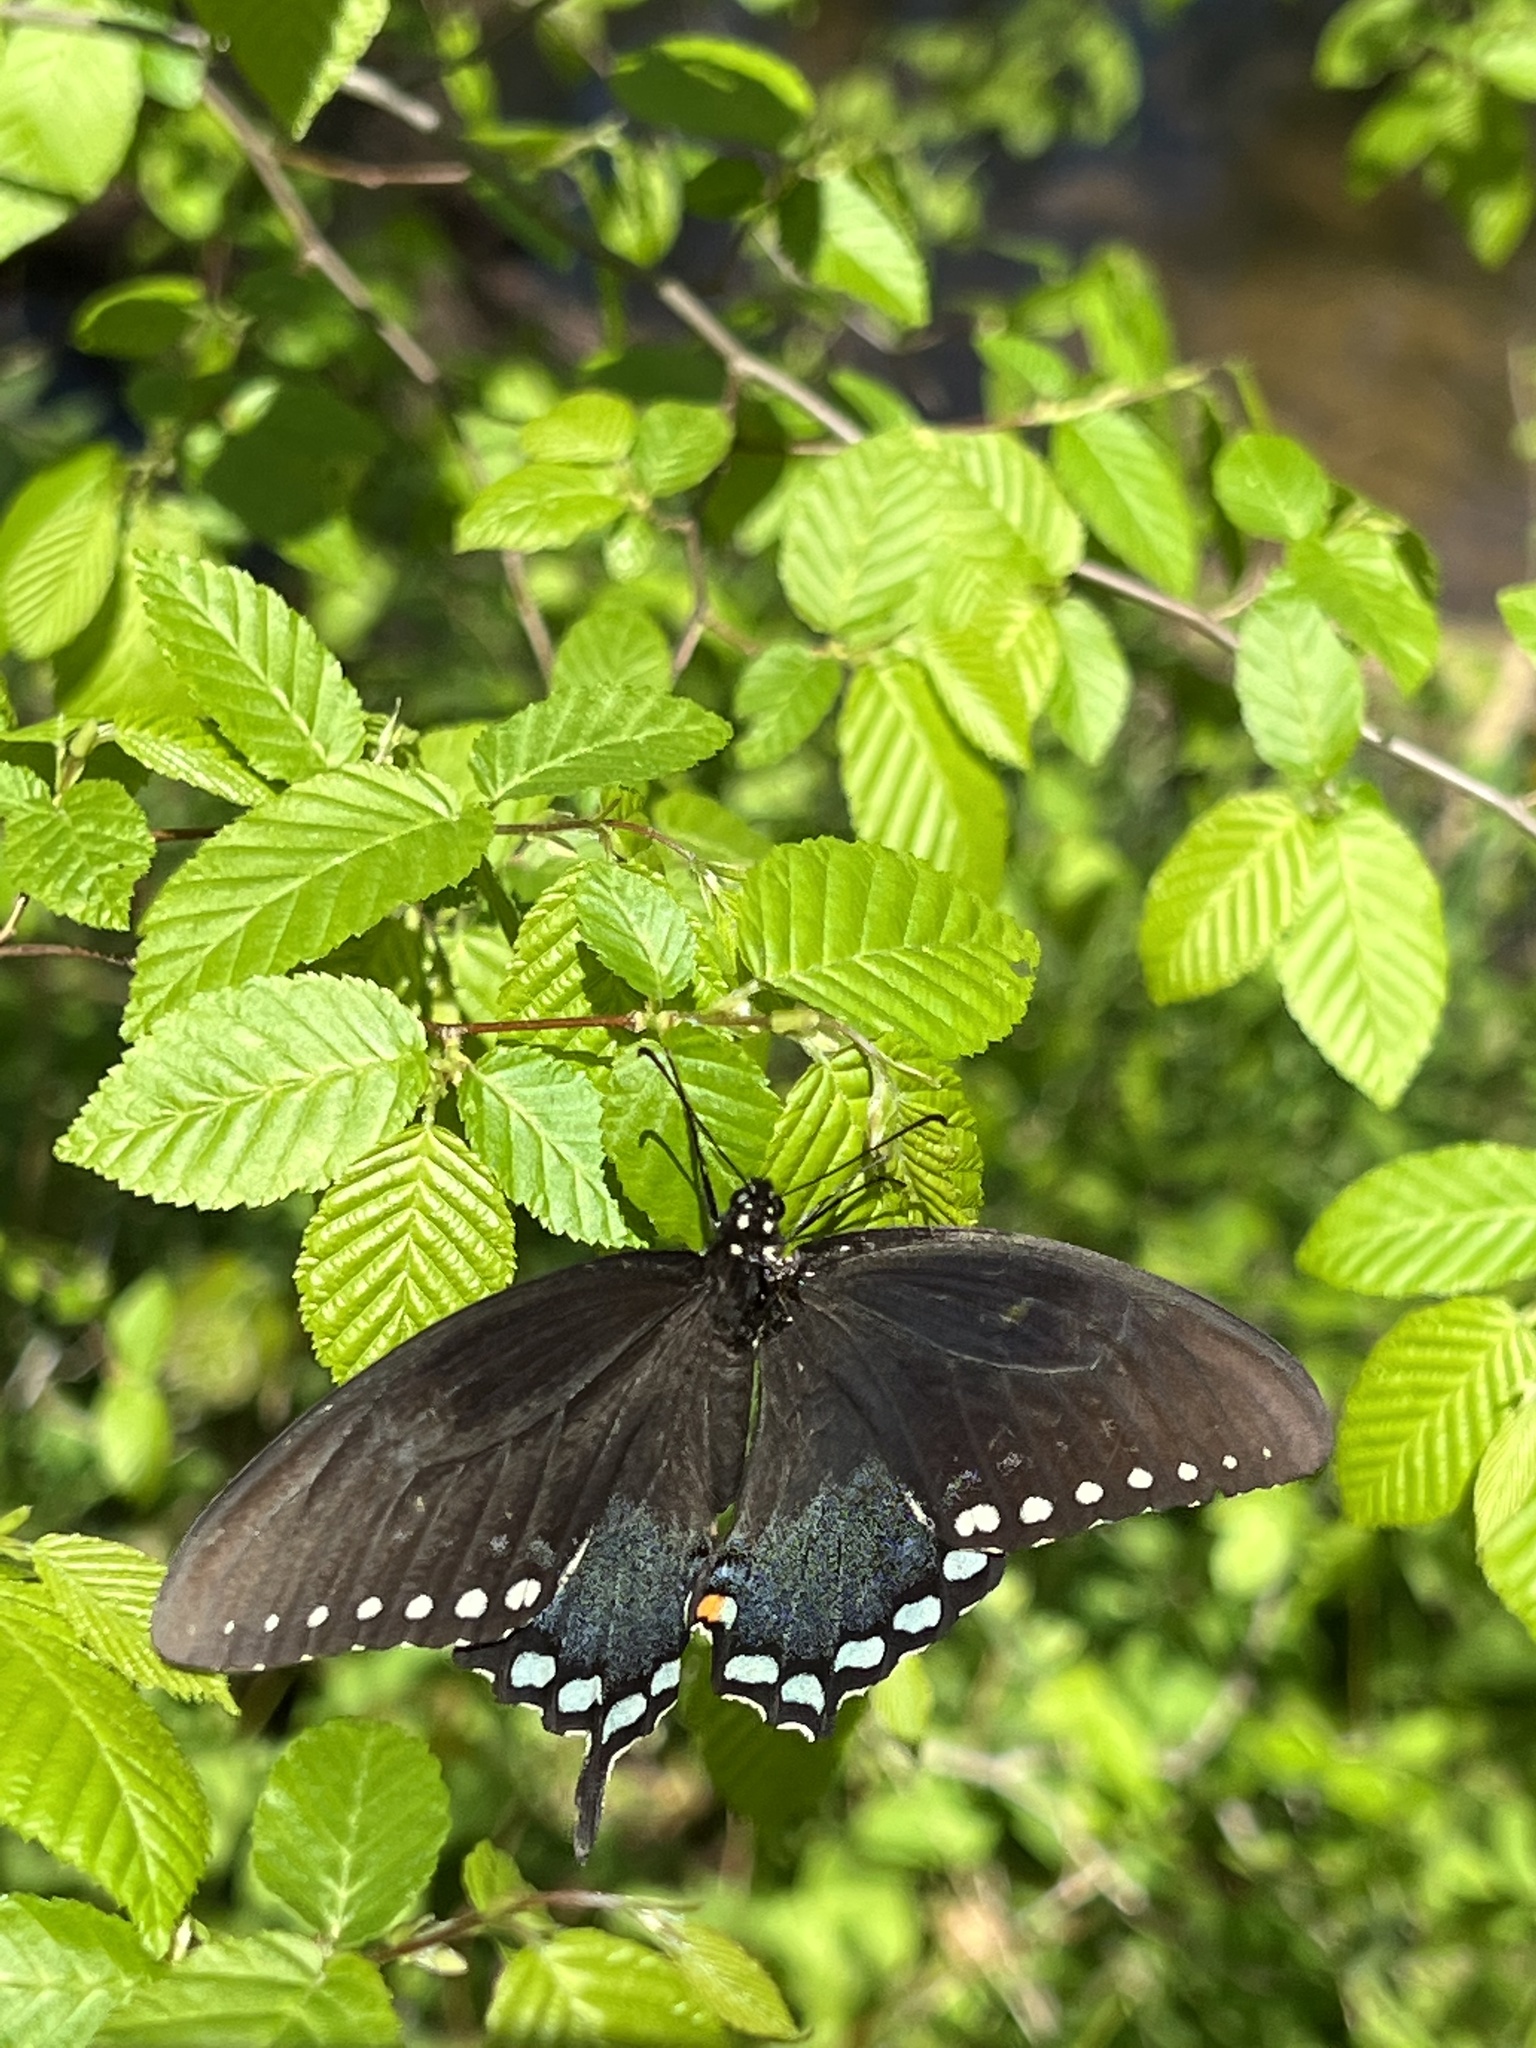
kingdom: Animalia
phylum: Arthropoda
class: Insecta
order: Lepidoptera
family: Papilionidae
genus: Papilio
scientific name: Papilio troilus
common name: Spicebush swallowtail
